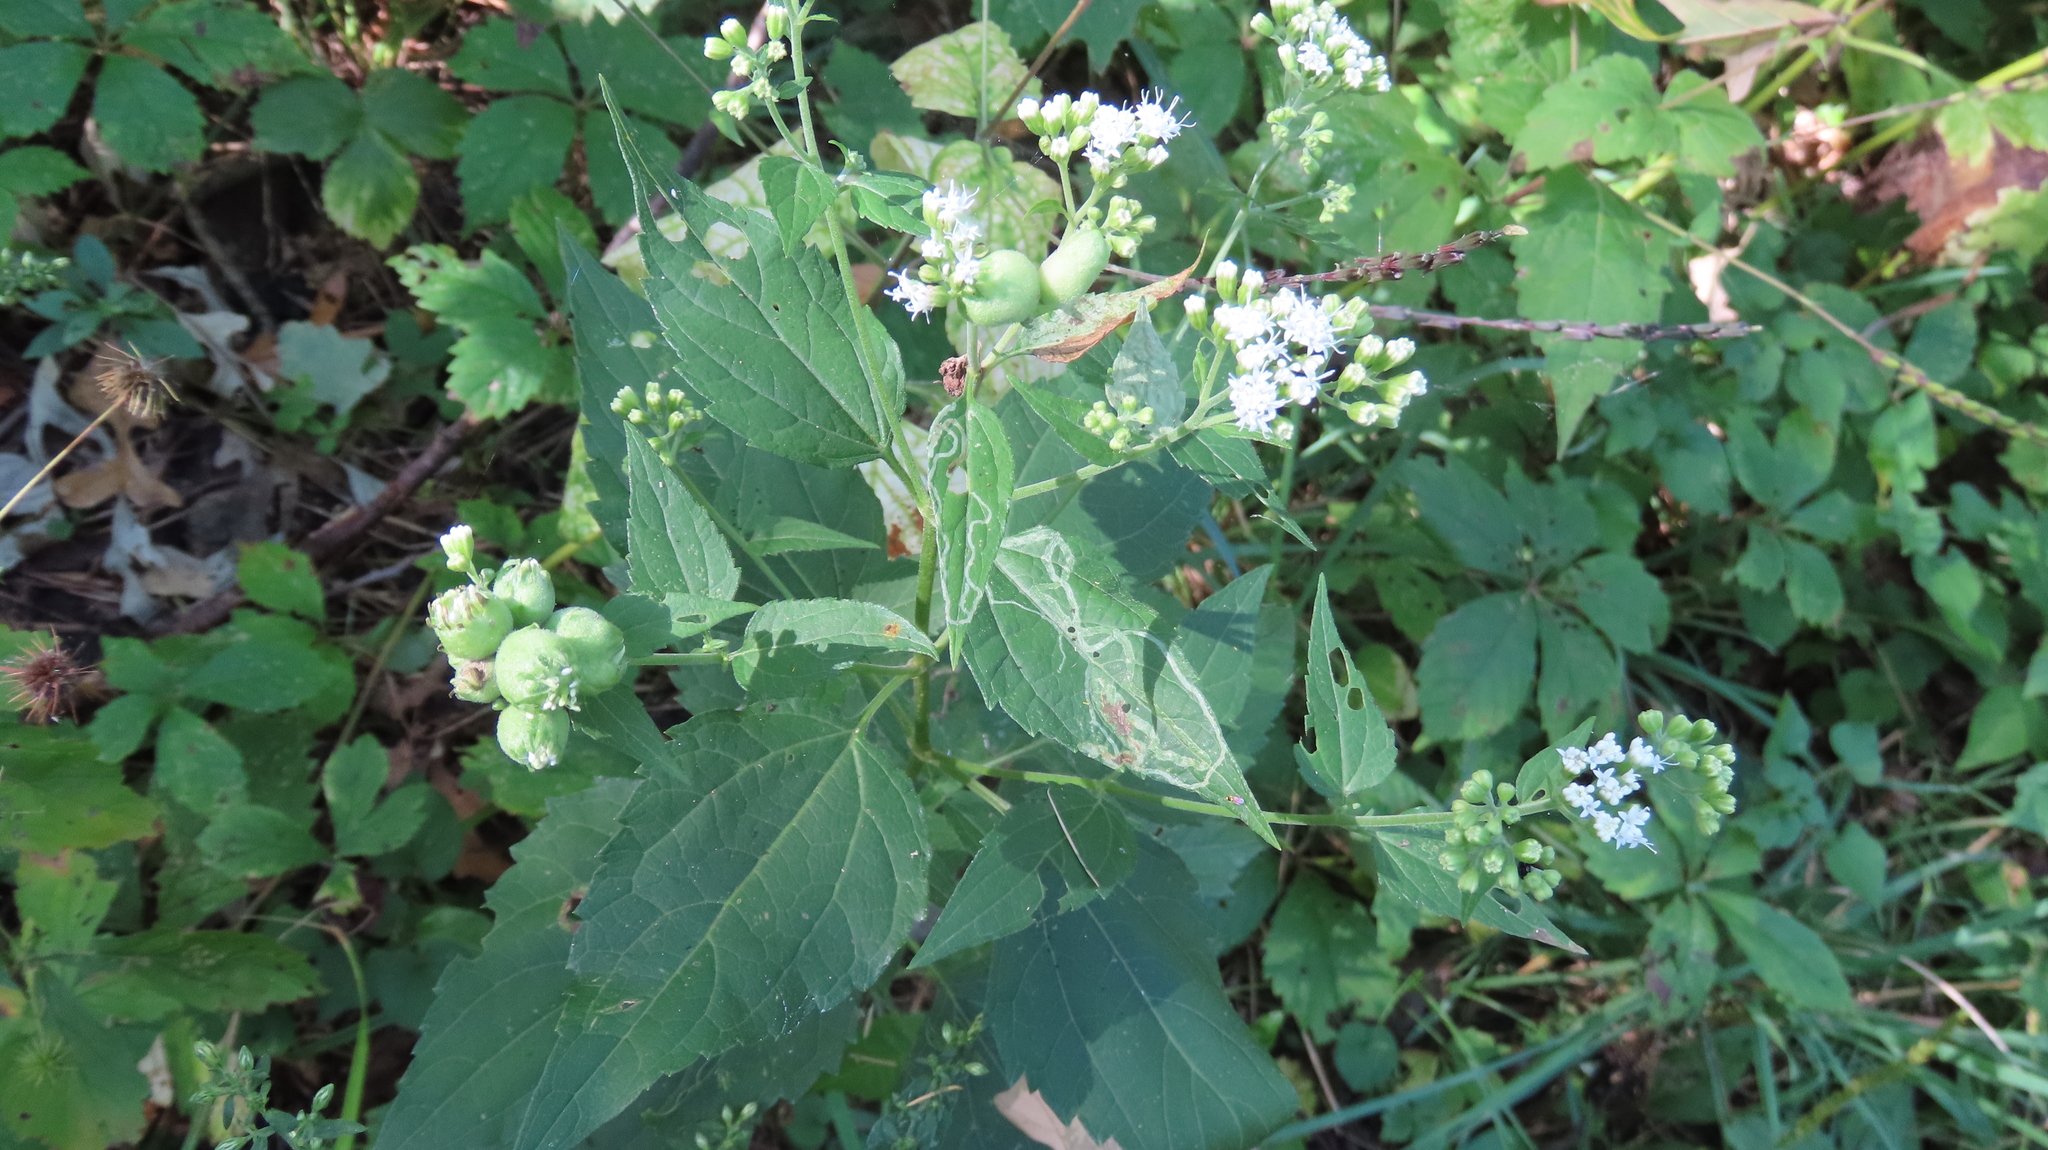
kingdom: Plantae
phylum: Tracheophyta
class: Magnoliopsida
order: Asterales
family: Asteraceae
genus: Ageratina
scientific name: Ageratina altissima
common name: White snakeroot
